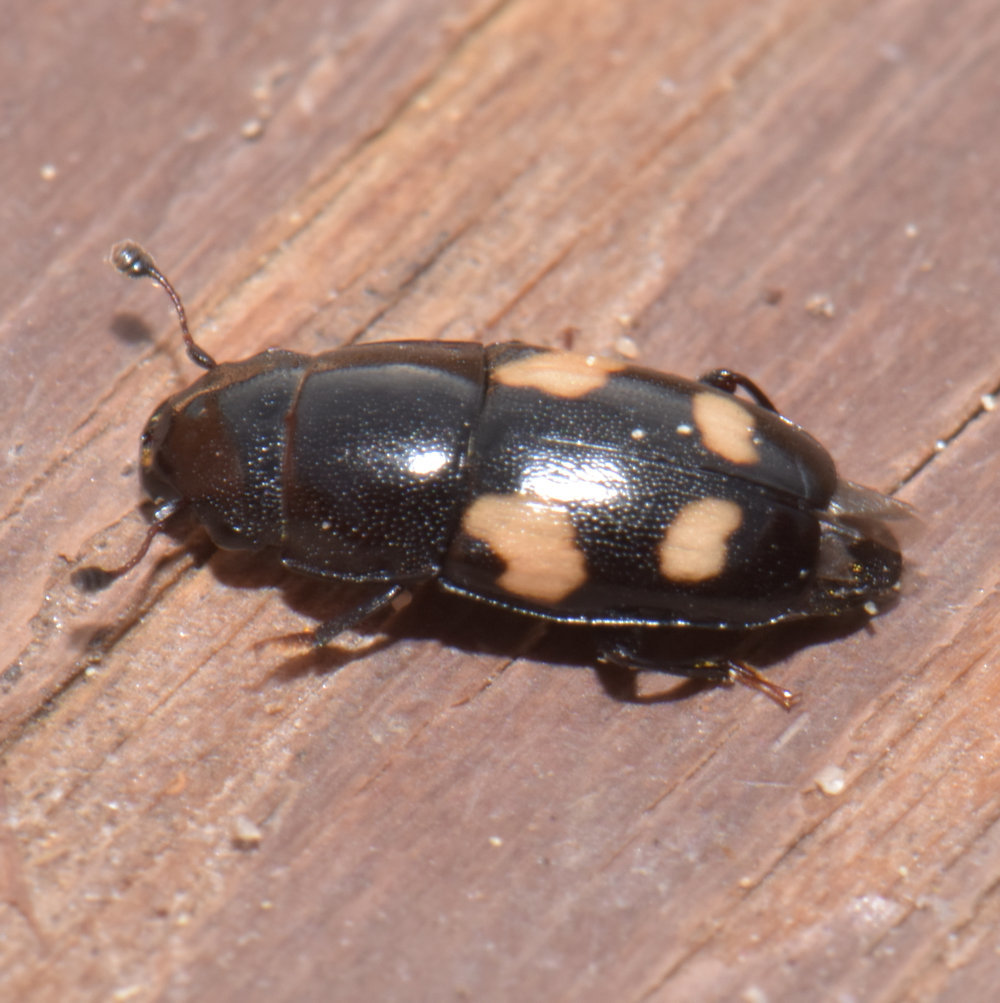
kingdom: Animalia
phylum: Arthropoda
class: Insecta
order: Coleoptera
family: Nitidulidae
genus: Glischrochilus
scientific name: Glischrochilus quadrisignatus
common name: Picnic beetle
